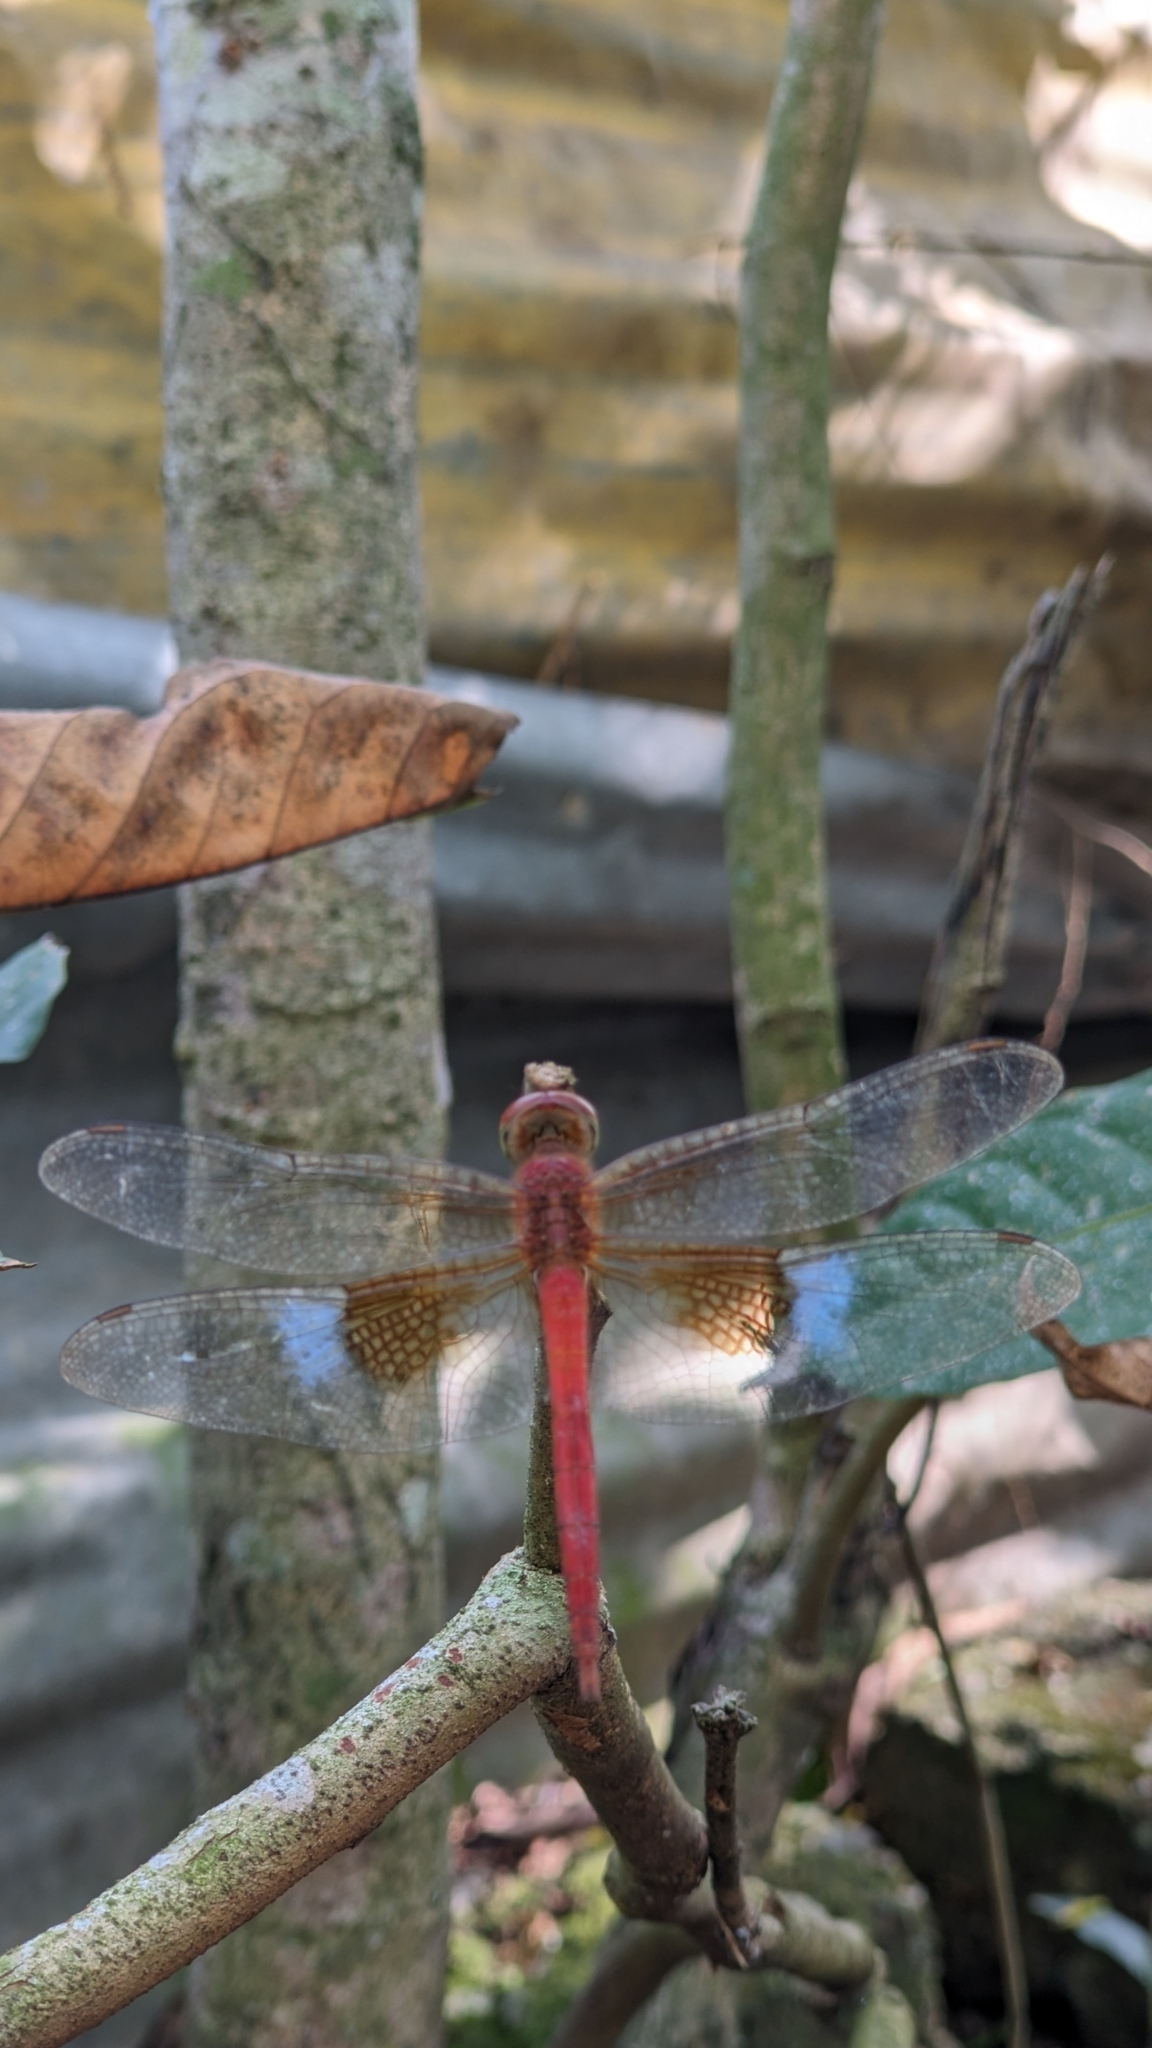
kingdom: Animalia
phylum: Arthropoda
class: Insecta
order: Odonata
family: Libellulidae
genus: Tholymis
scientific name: Tholymis tillarga
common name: Coral-tailed cloud wing
